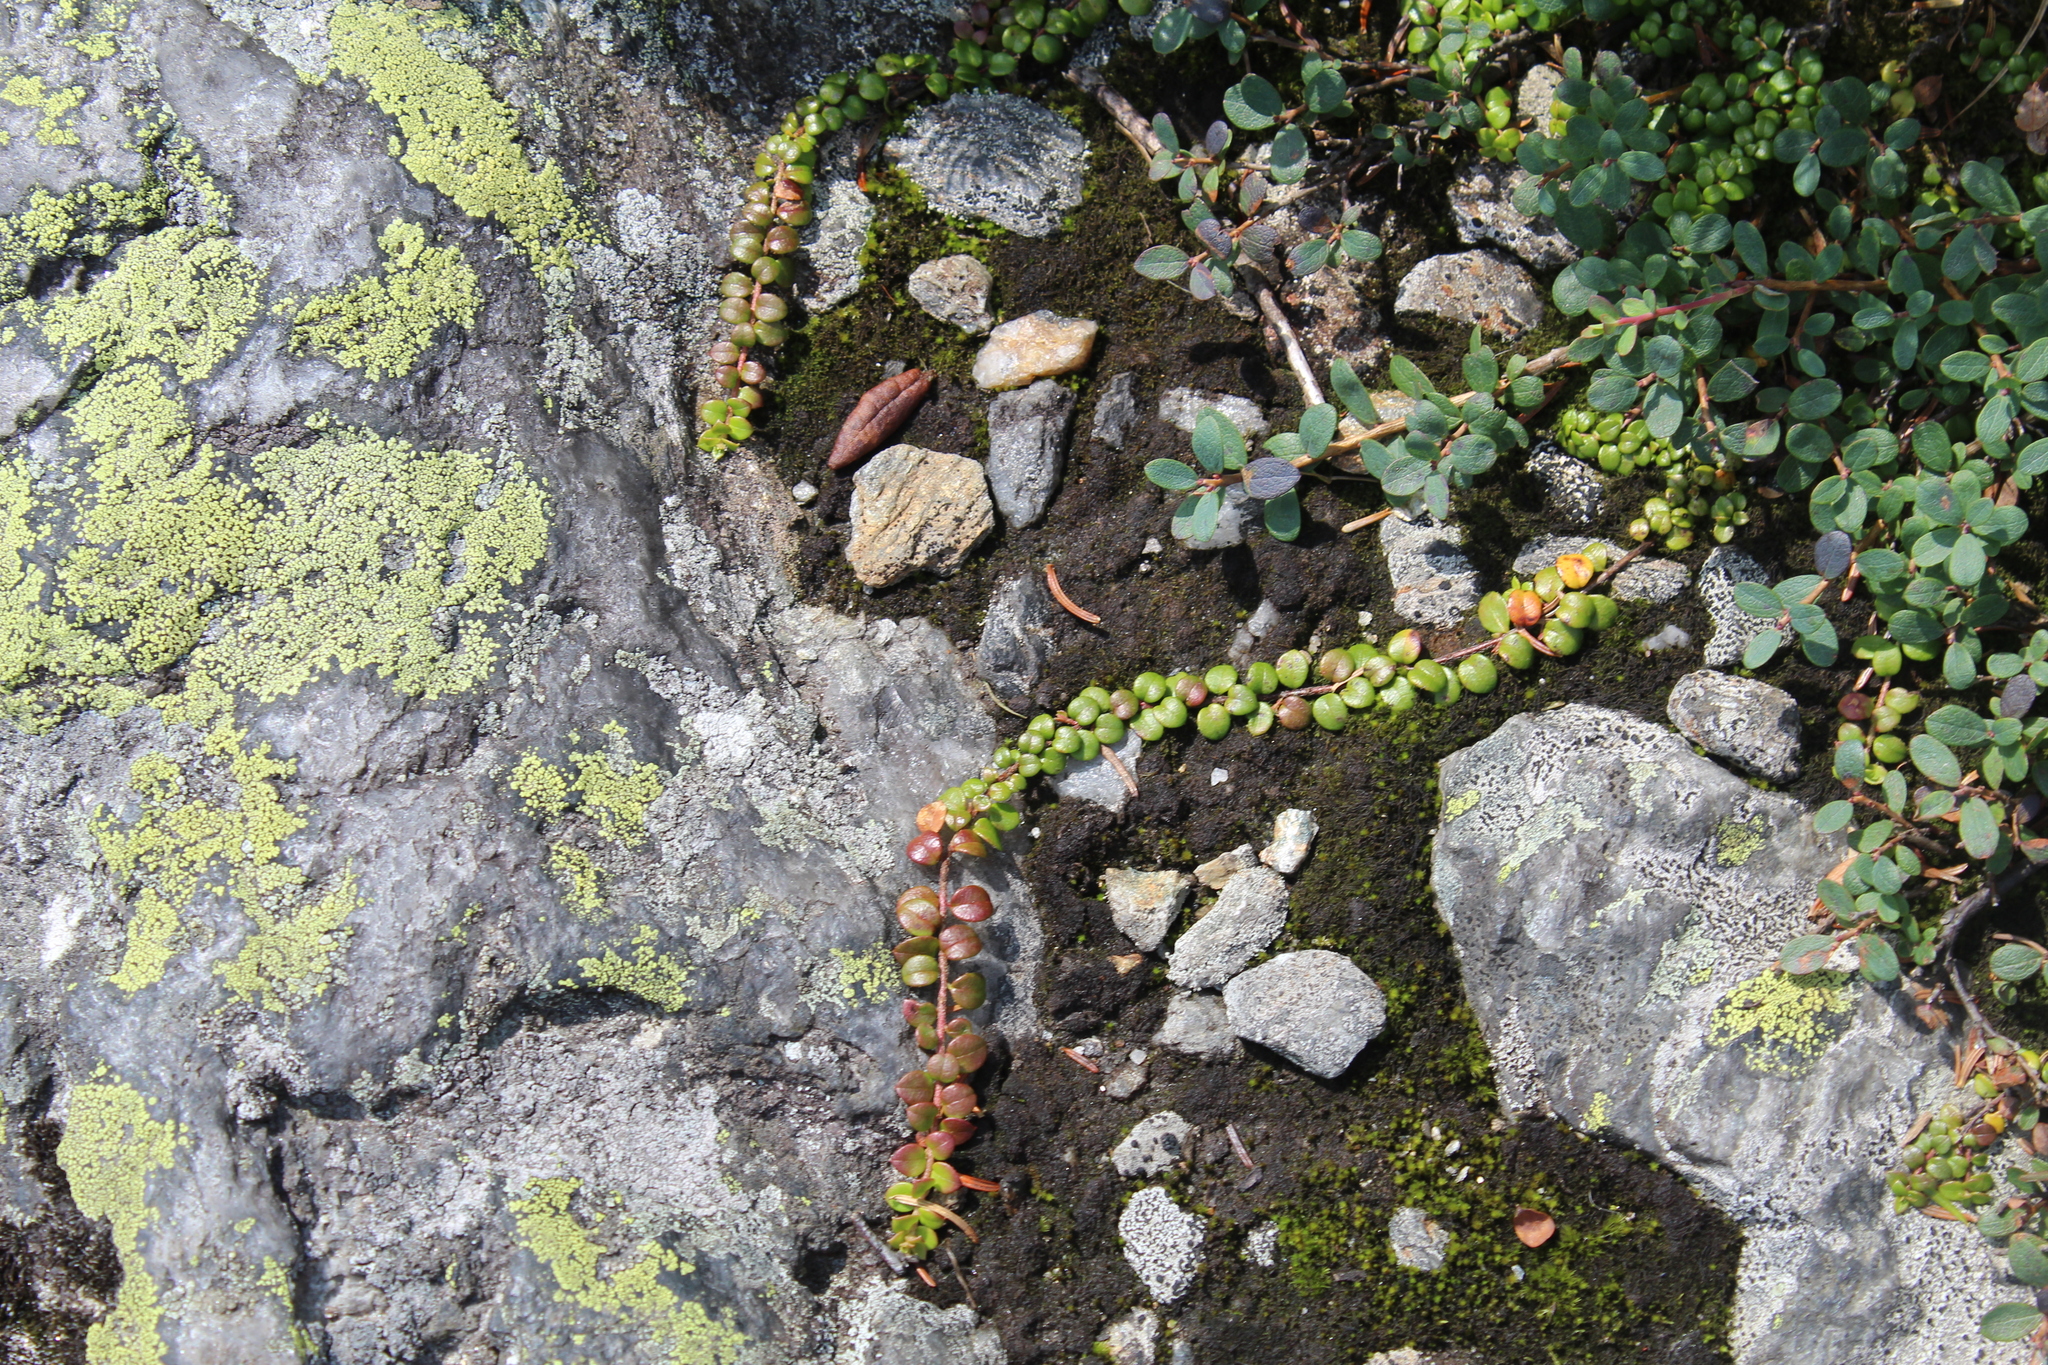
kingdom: Plantae
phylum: Tracheophyta
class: Magnoliopsida
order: Ericales
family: Ericaceae
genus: Gaultheria
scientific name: Gaultheria hispidula
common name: Cancer wintergreen
